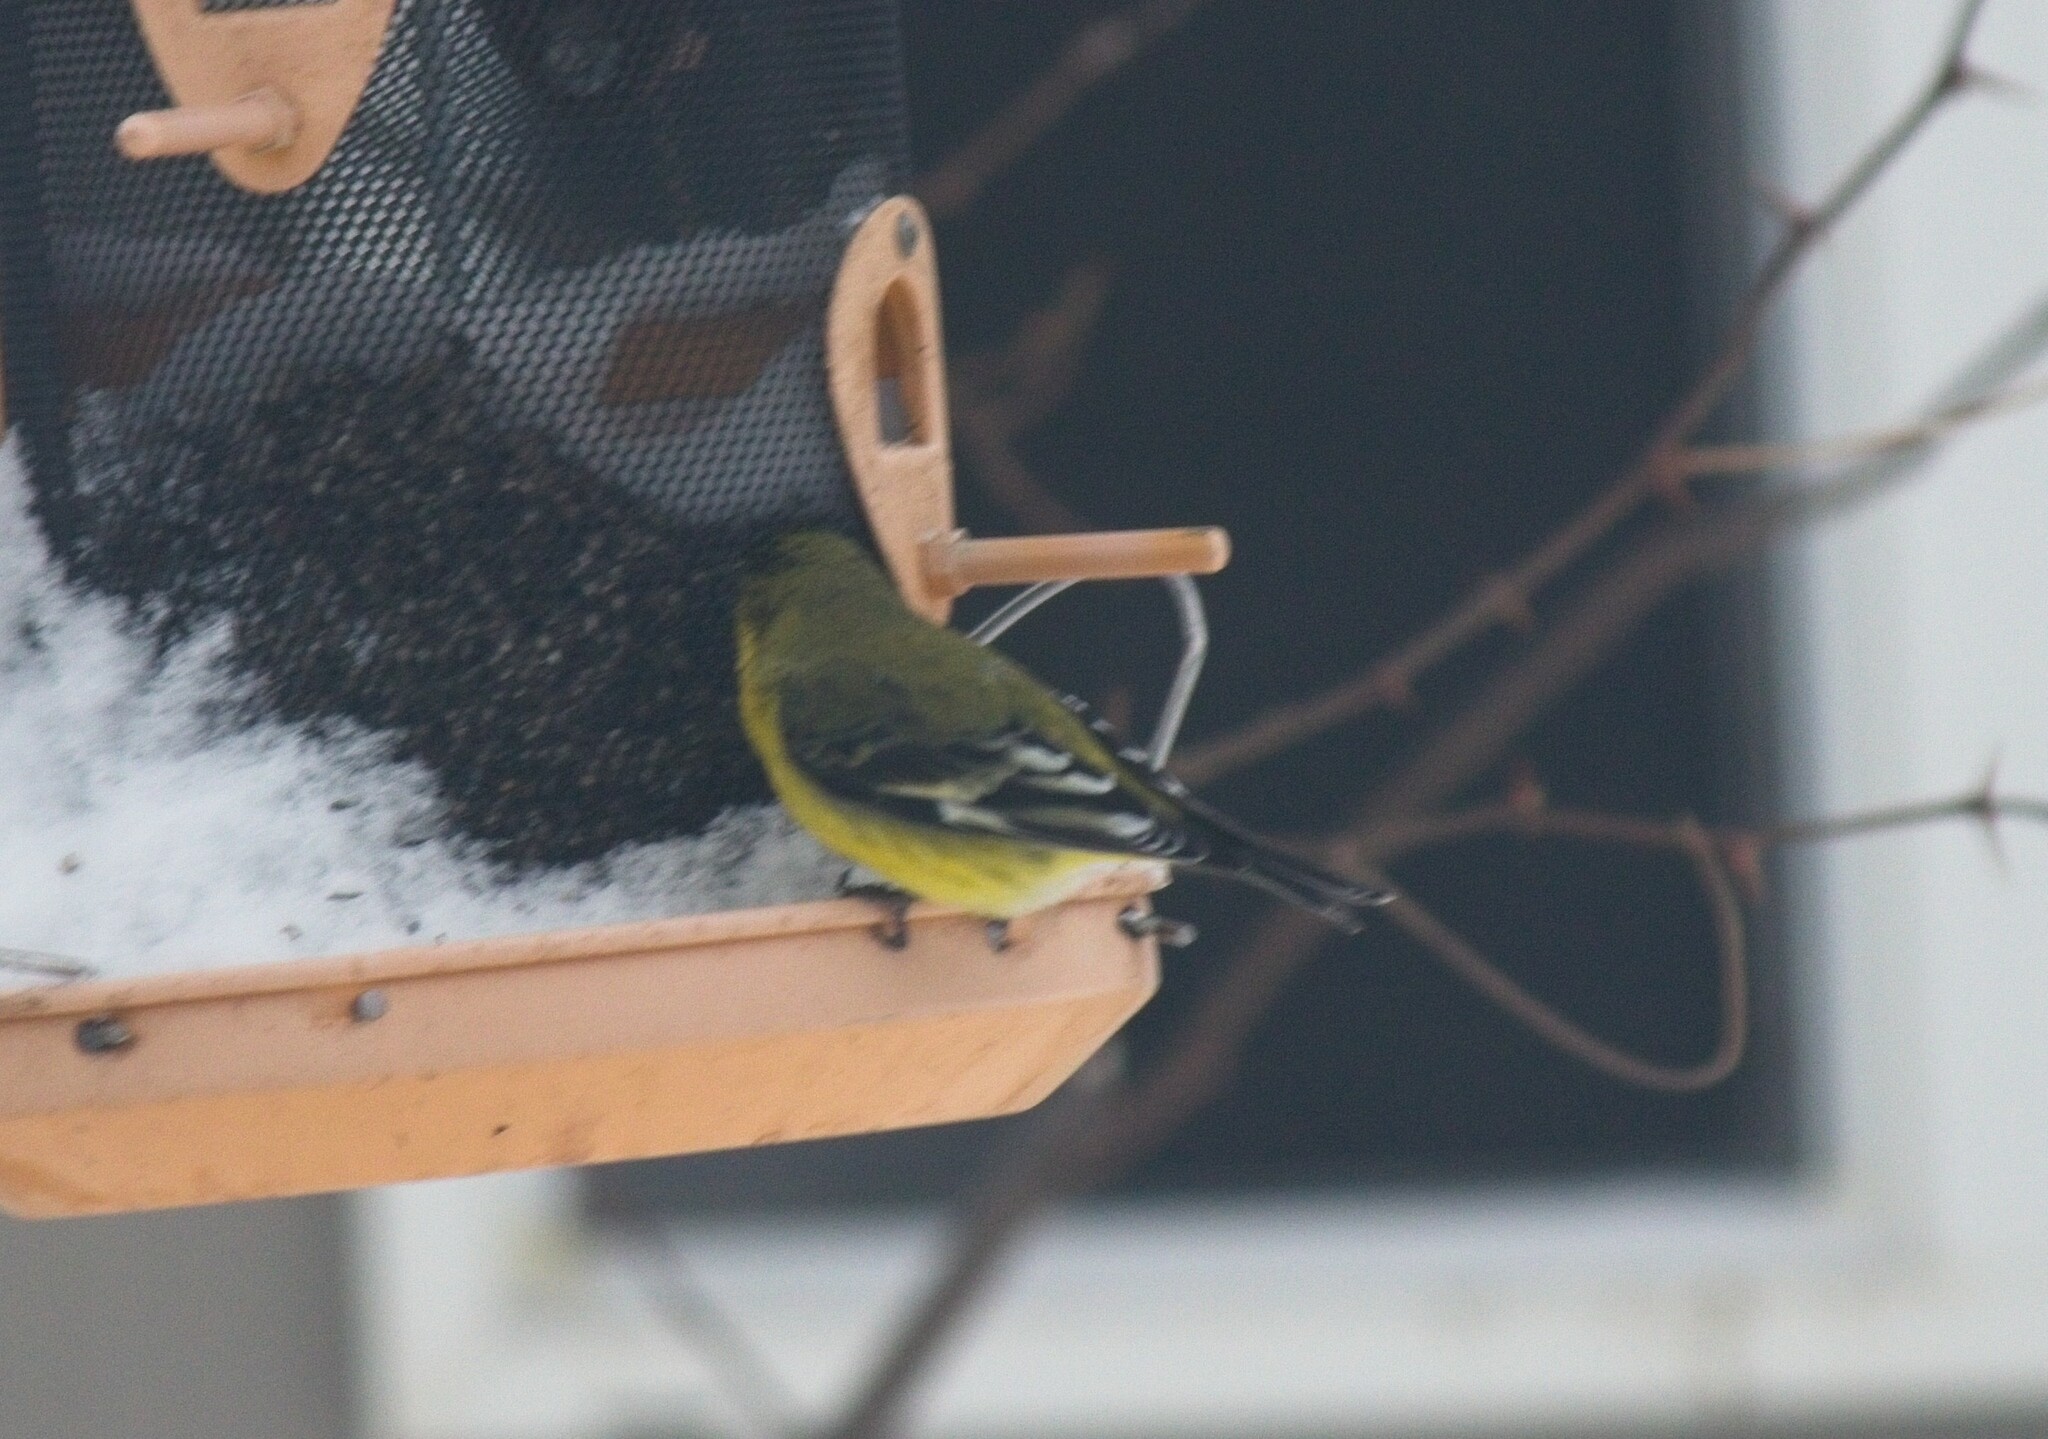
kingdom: Animalia
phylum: Chordata
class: Aves
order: Passeriformes
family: Fringillidae
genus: Spinus
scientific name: Spinus psaltria
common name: Lesser goldfinch
